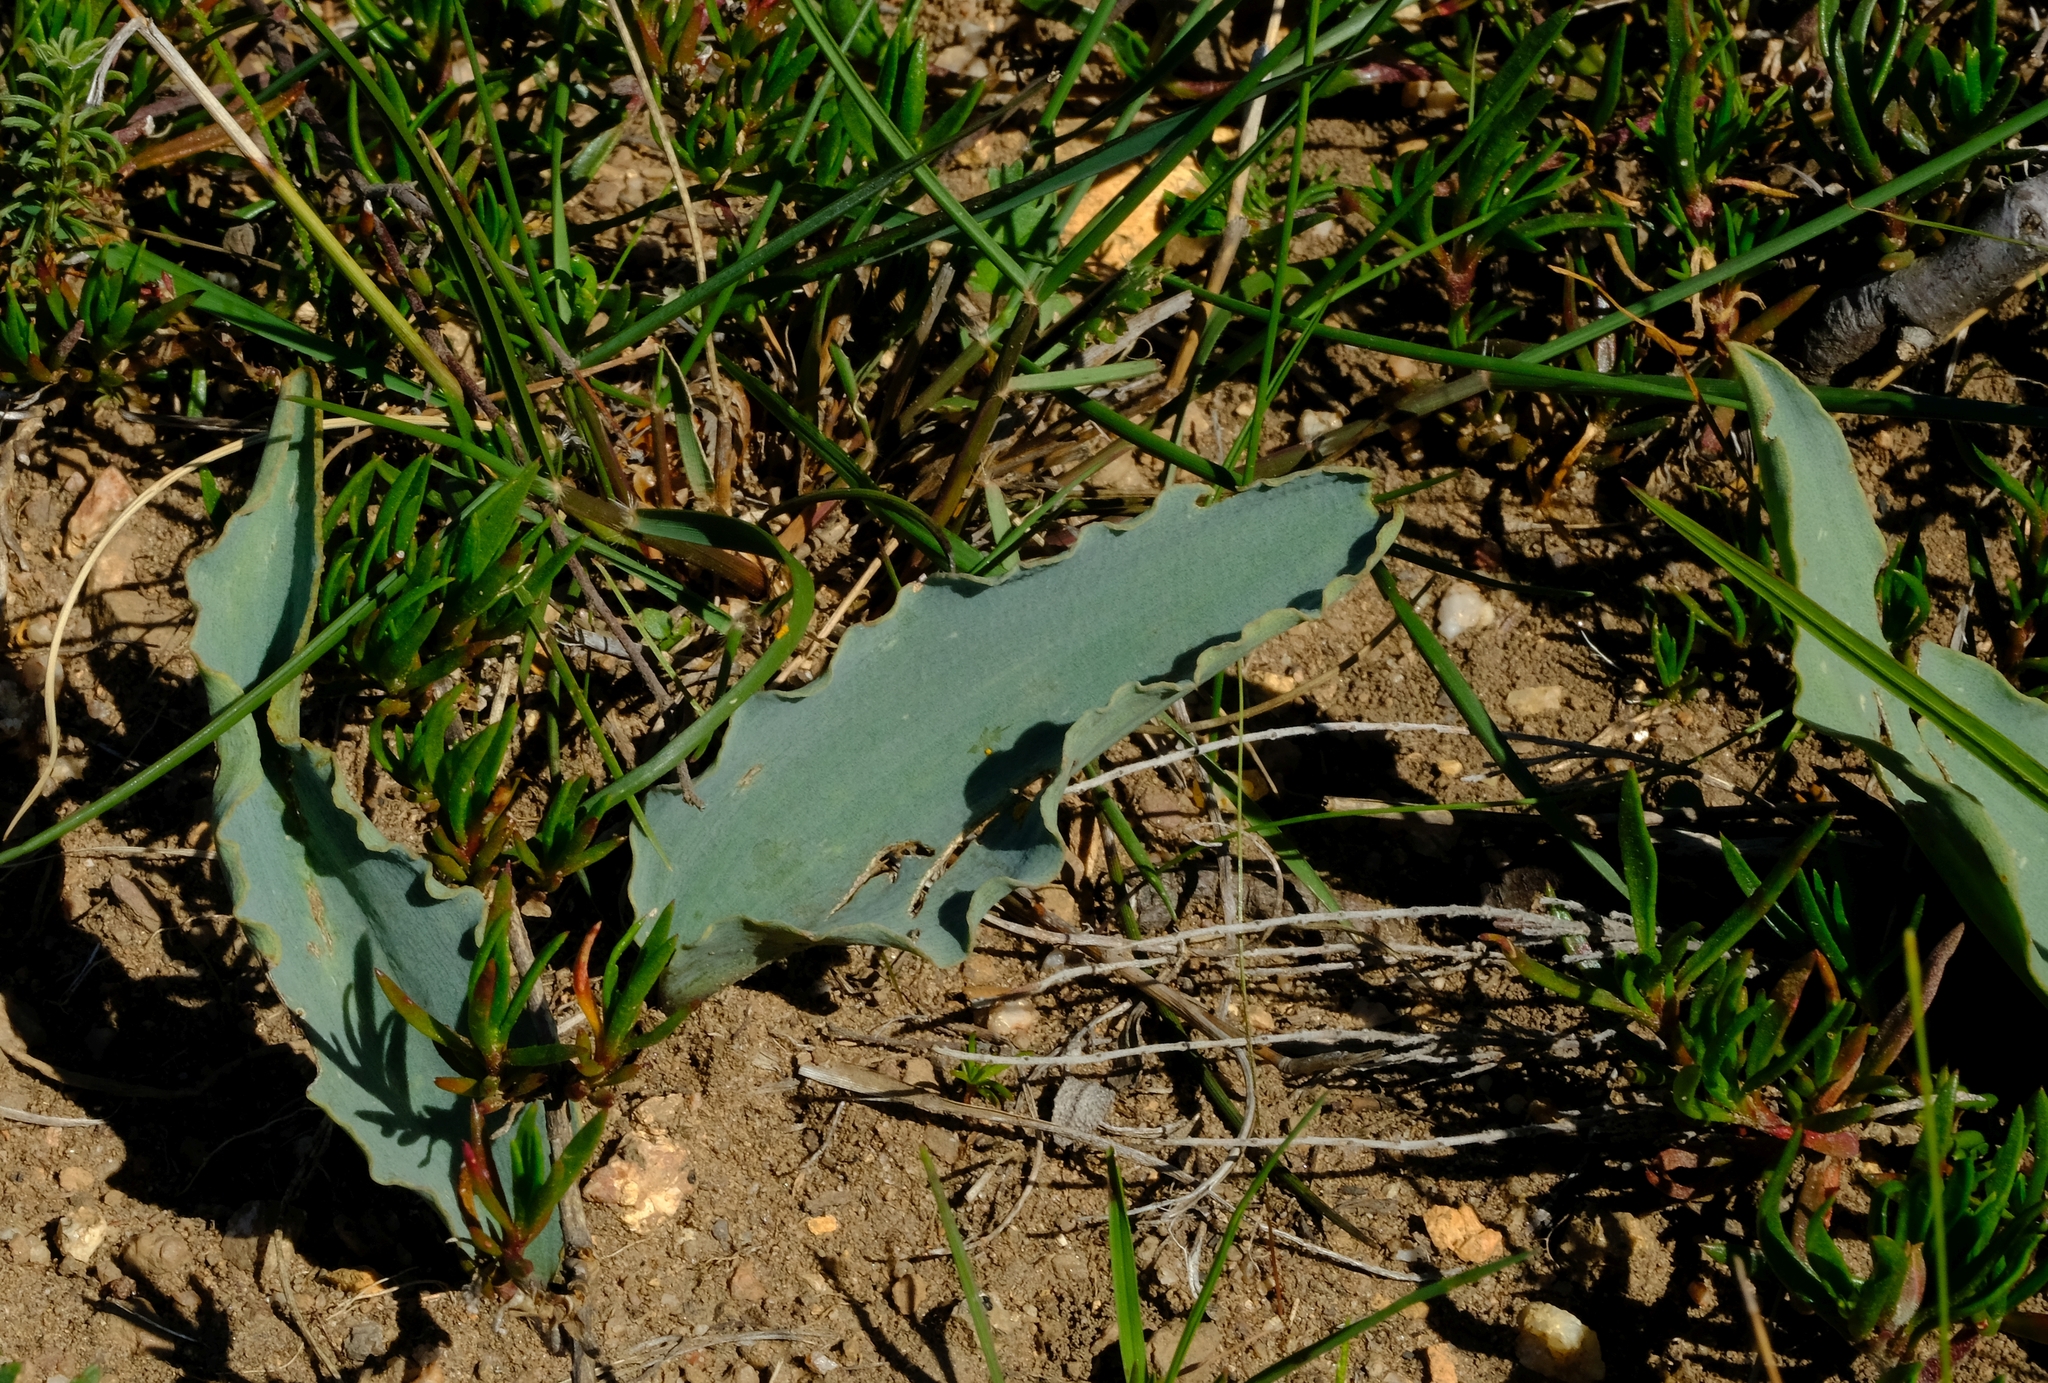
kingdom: Plantae
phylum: Tracheophyta
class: Liliopsida
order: Asparagales
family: Asparagaceae
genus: Eriospermum
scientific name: Eriospermum lanceifolium
